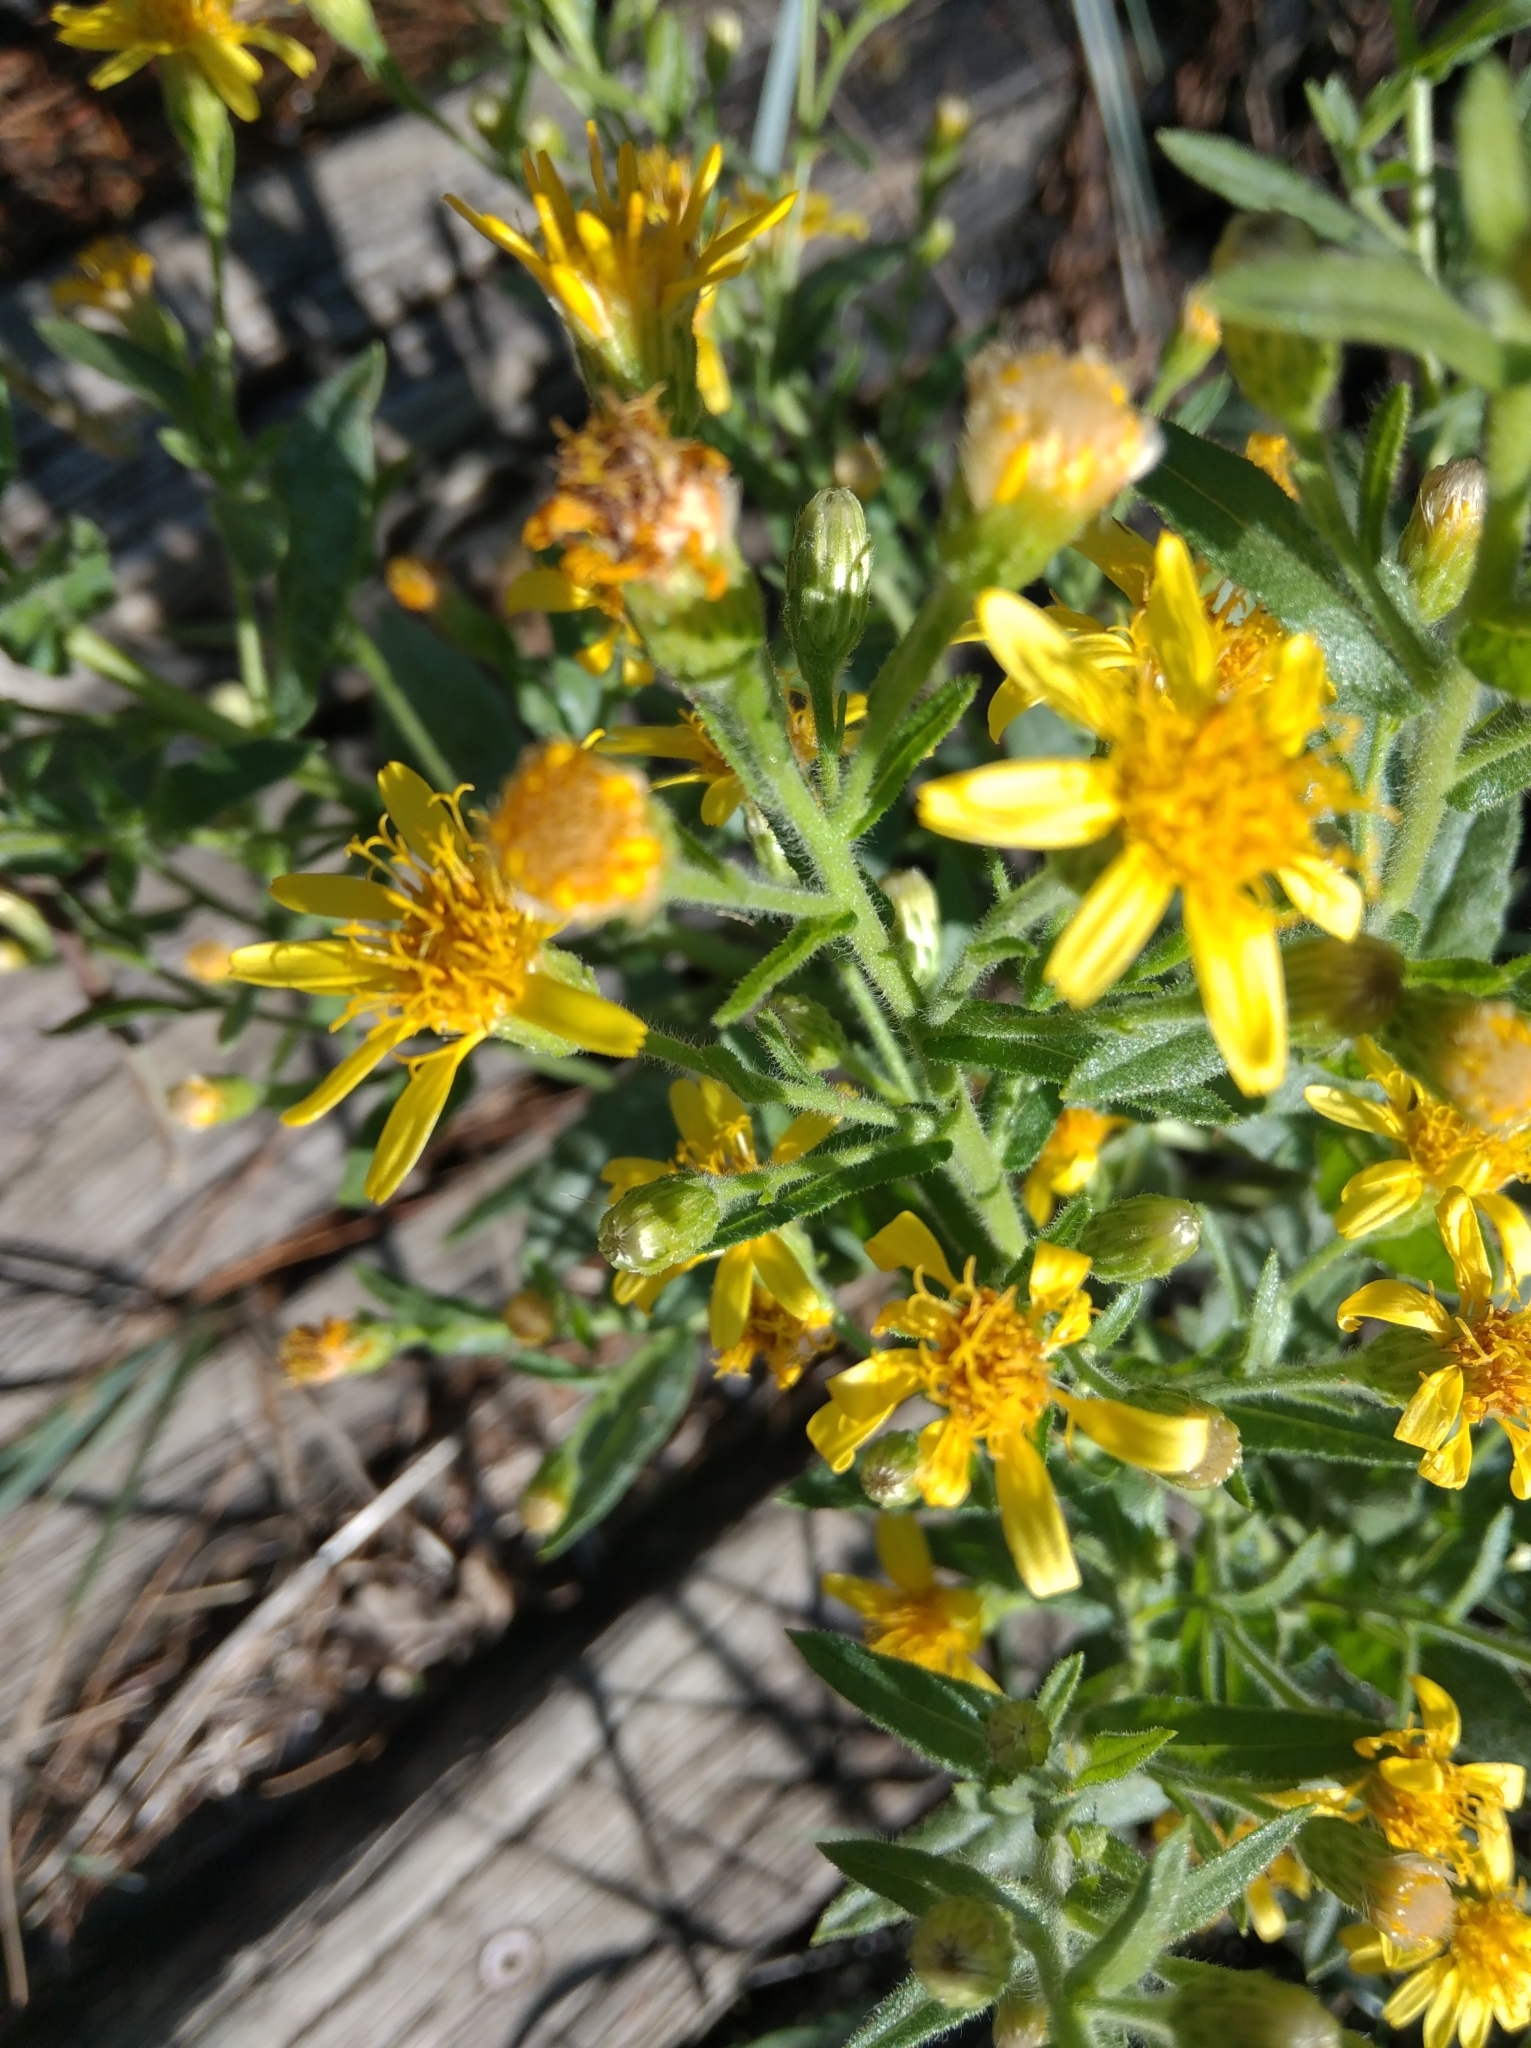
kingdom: Plantae
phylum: Tracheophyta
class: Magnoliopsida
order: Asterales
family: Asteraceae
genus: Dittrichia
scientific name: Dittrichia viscosa
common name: Woody fleabane
